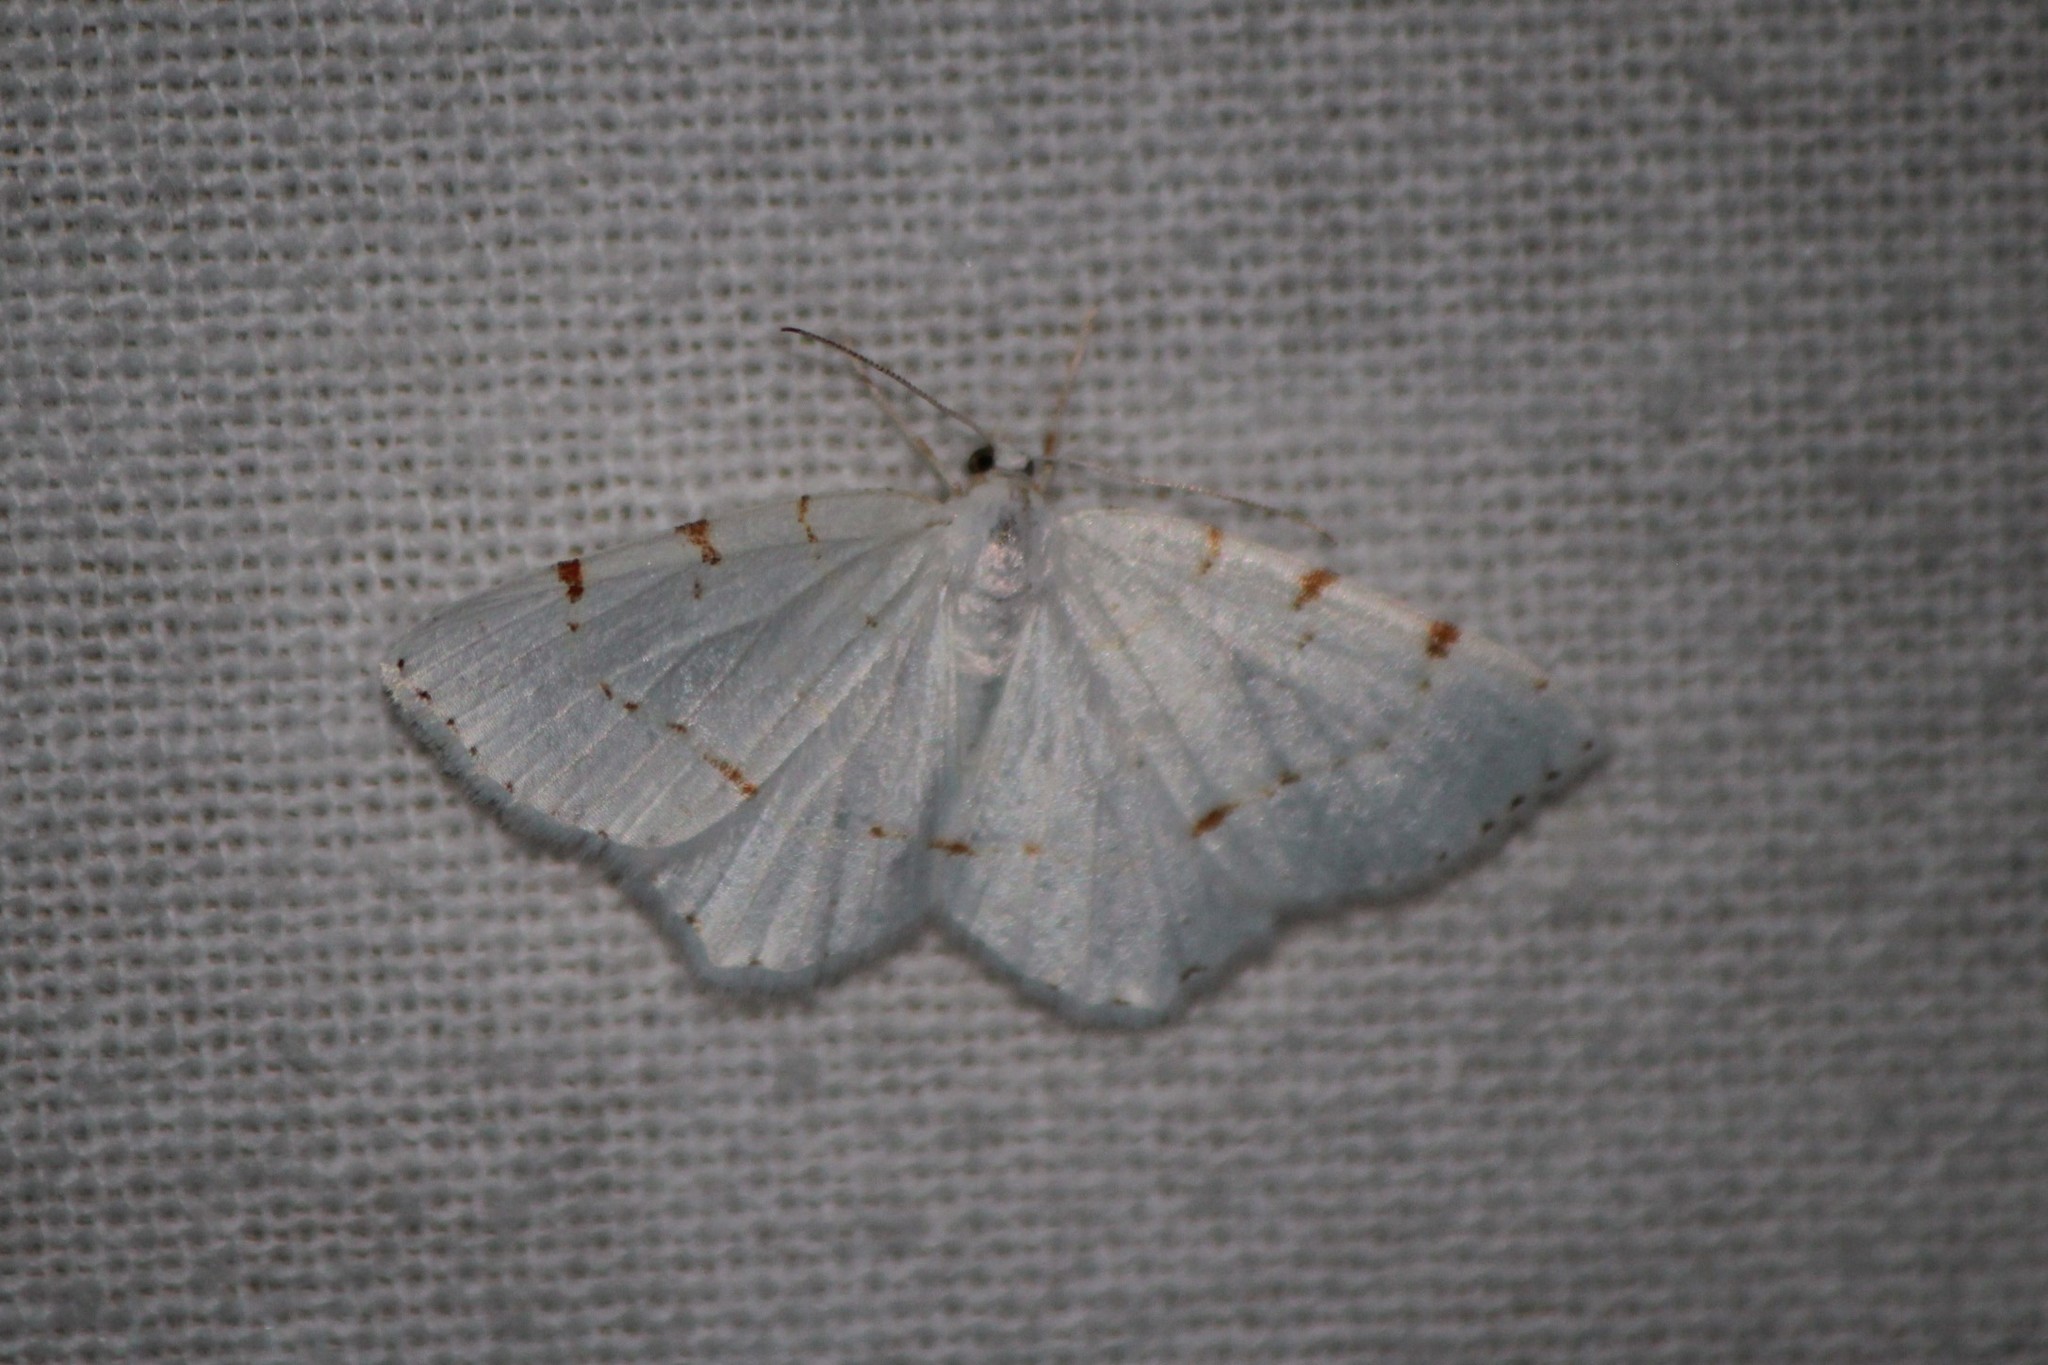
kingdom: Animalia
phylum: Arthropoda
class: Insecta
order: Lepidoptera
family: Geometridae
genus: Macaria
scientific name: Macaria pustularia
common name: Lesser maple spanworm moth
